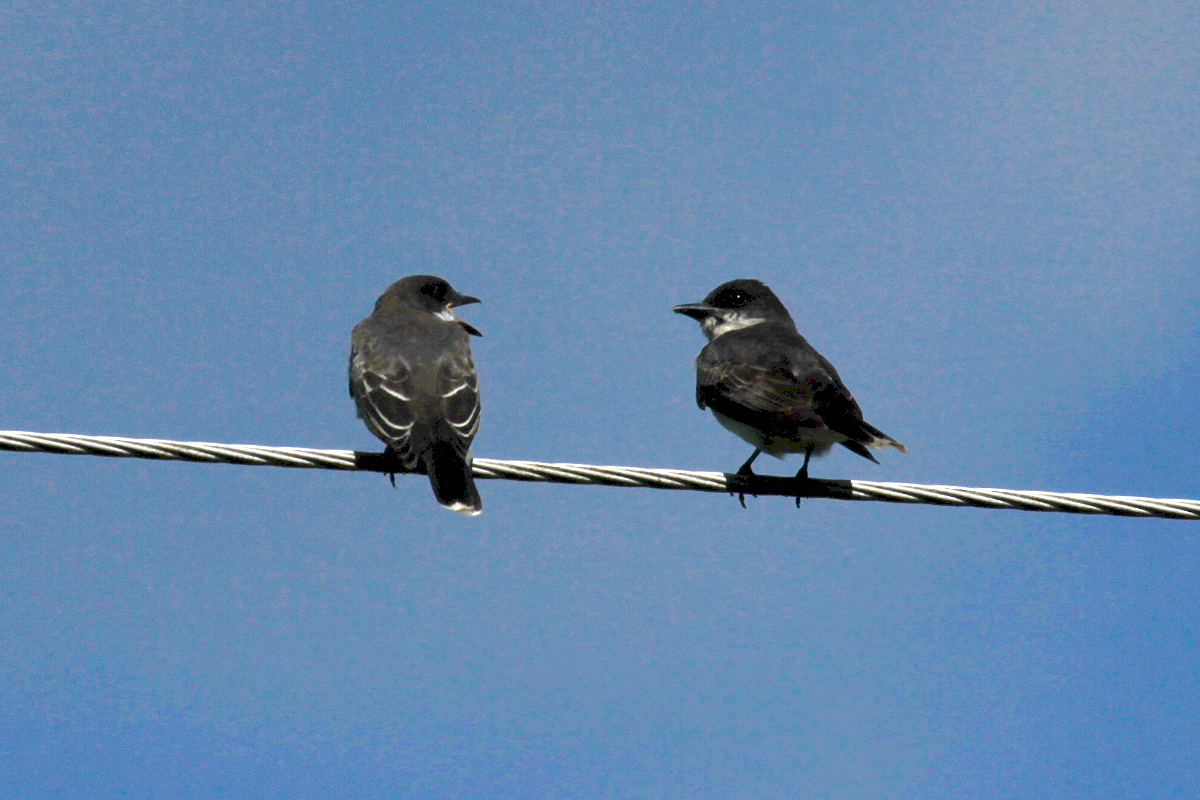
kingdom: Animalia
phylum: Chordata
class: Aves
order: Passeriformes
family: Tyrannidae
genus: Tyrannus
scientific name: Tyrannus tyrannus
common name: Eastern kingbird
